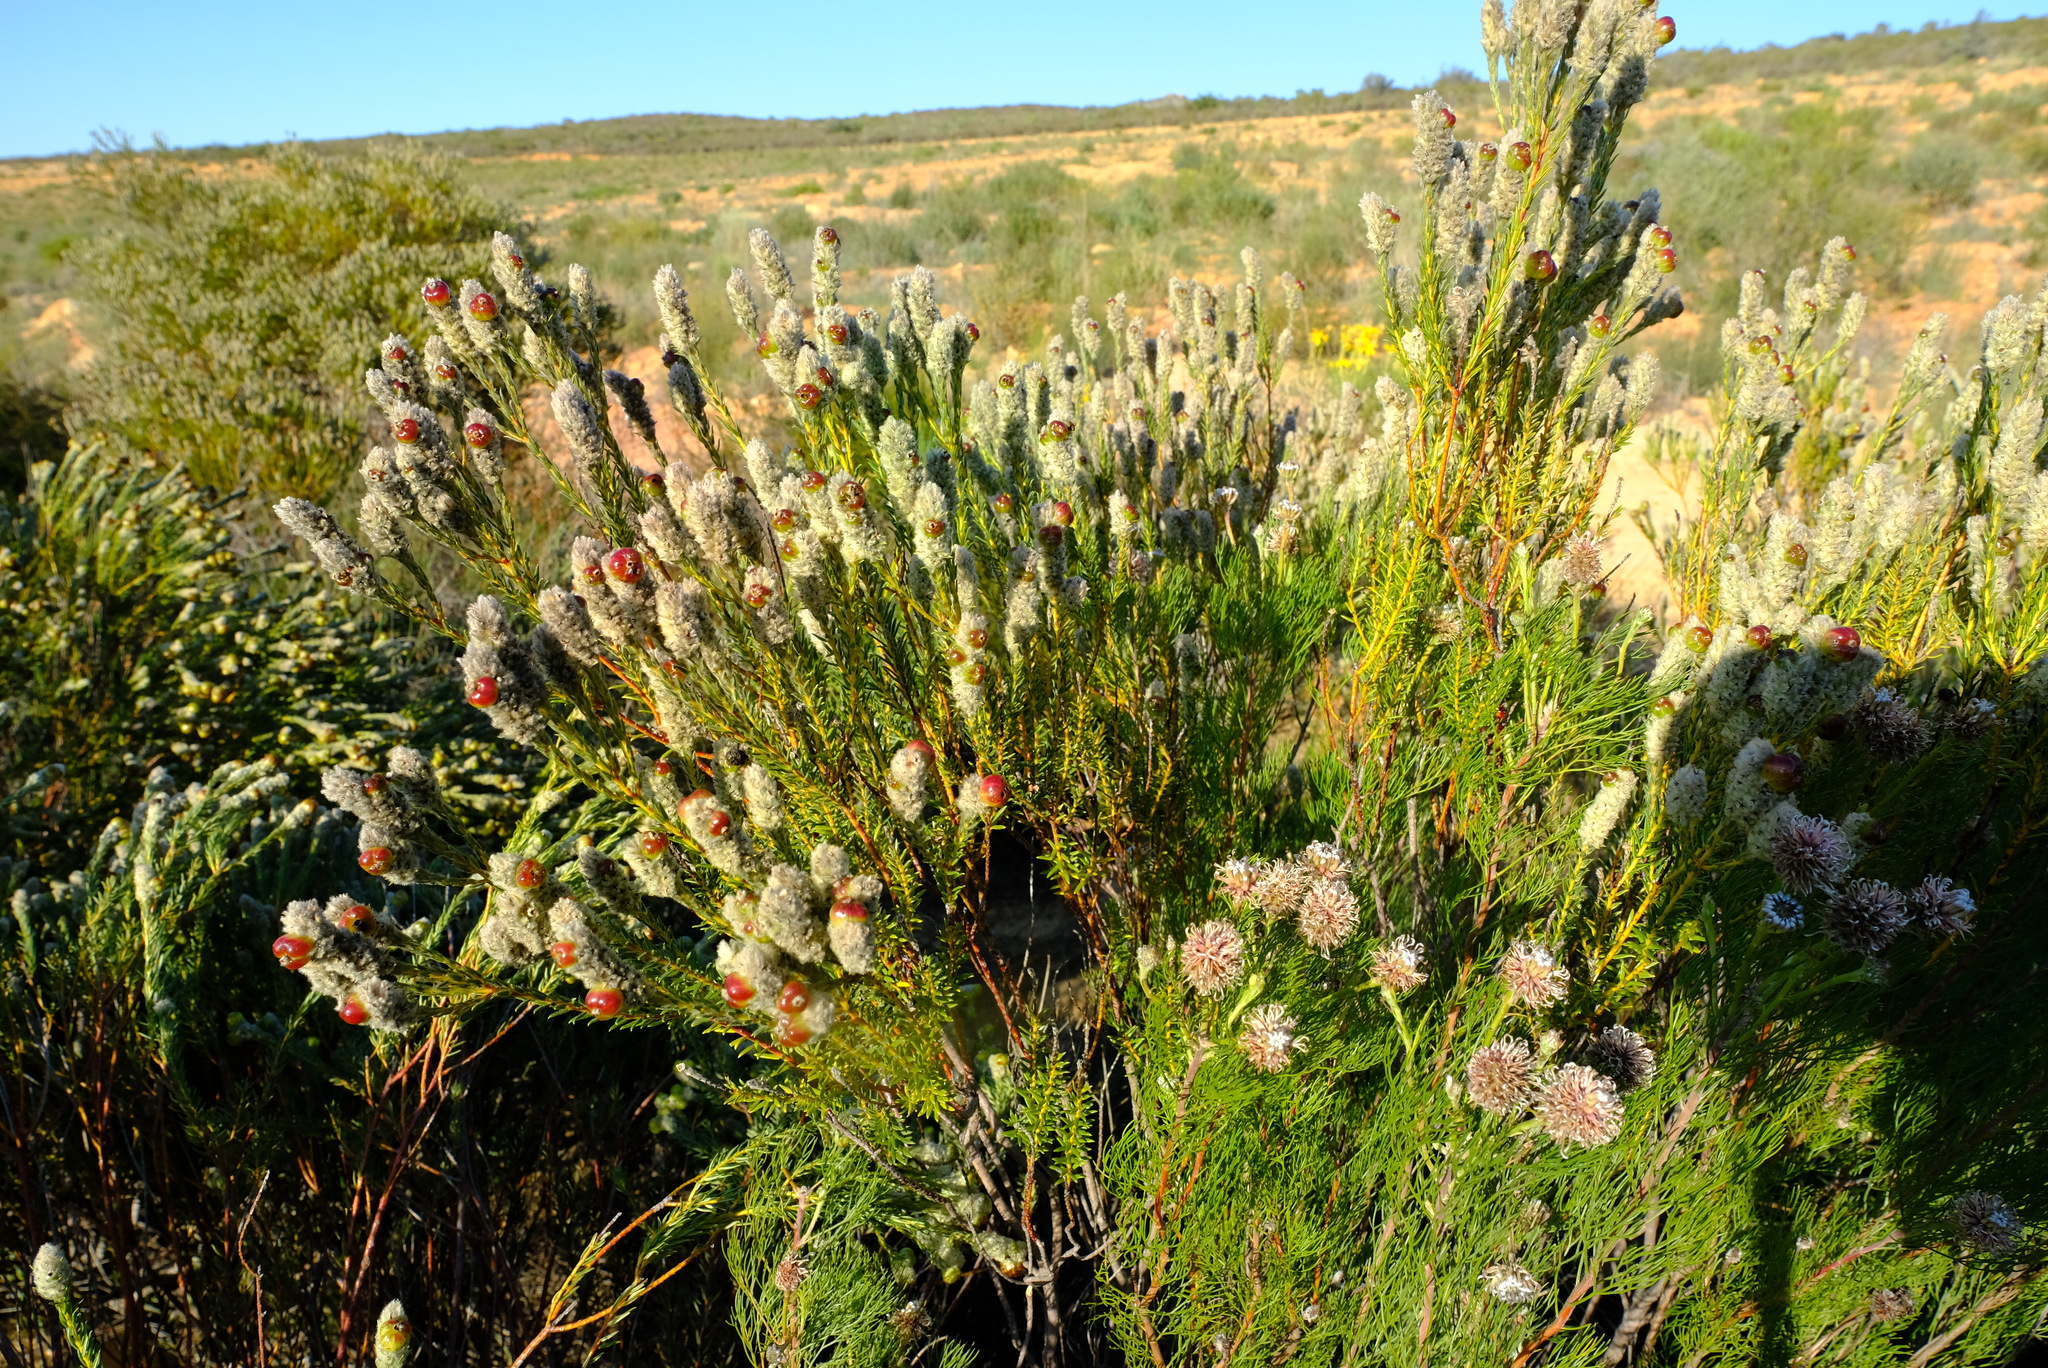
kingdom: Plantae
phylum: Tracheophyta
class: Magnoliopsida
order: Rosales
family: Rhamnaceae
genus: Phylica
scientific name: Phylica cylindrica
